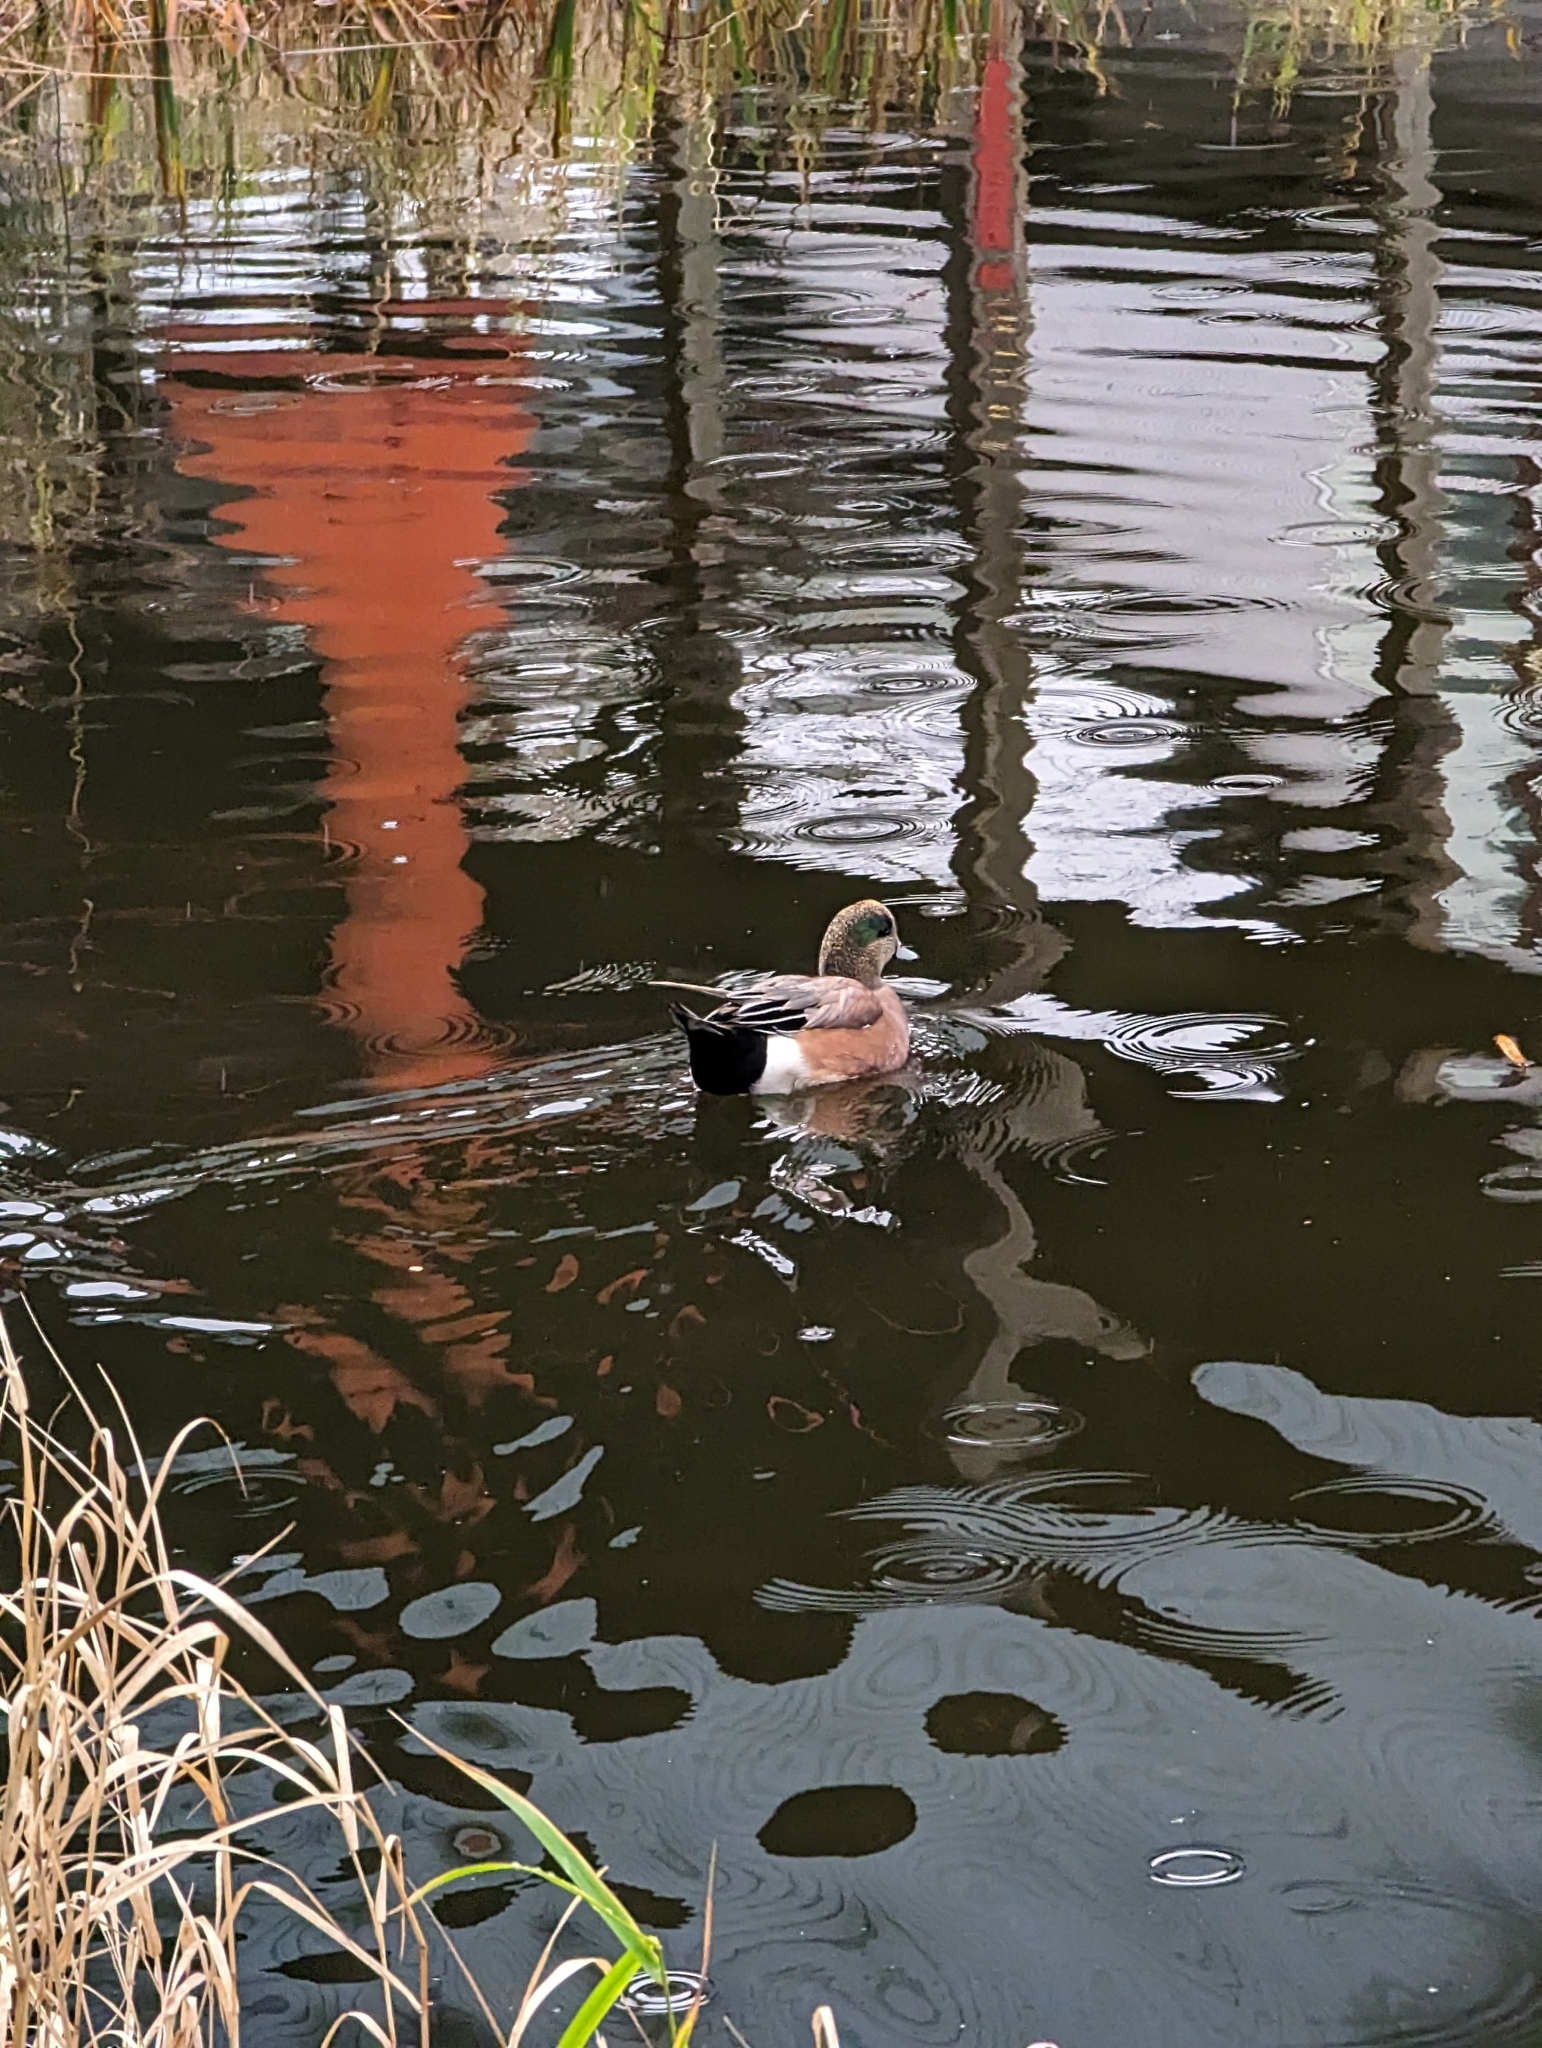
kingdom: Animalia
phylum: Chordata
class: Aves
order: Anseriformes
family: Anatidae
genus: Mareca
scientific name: Mareca americana
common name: American wigeon
